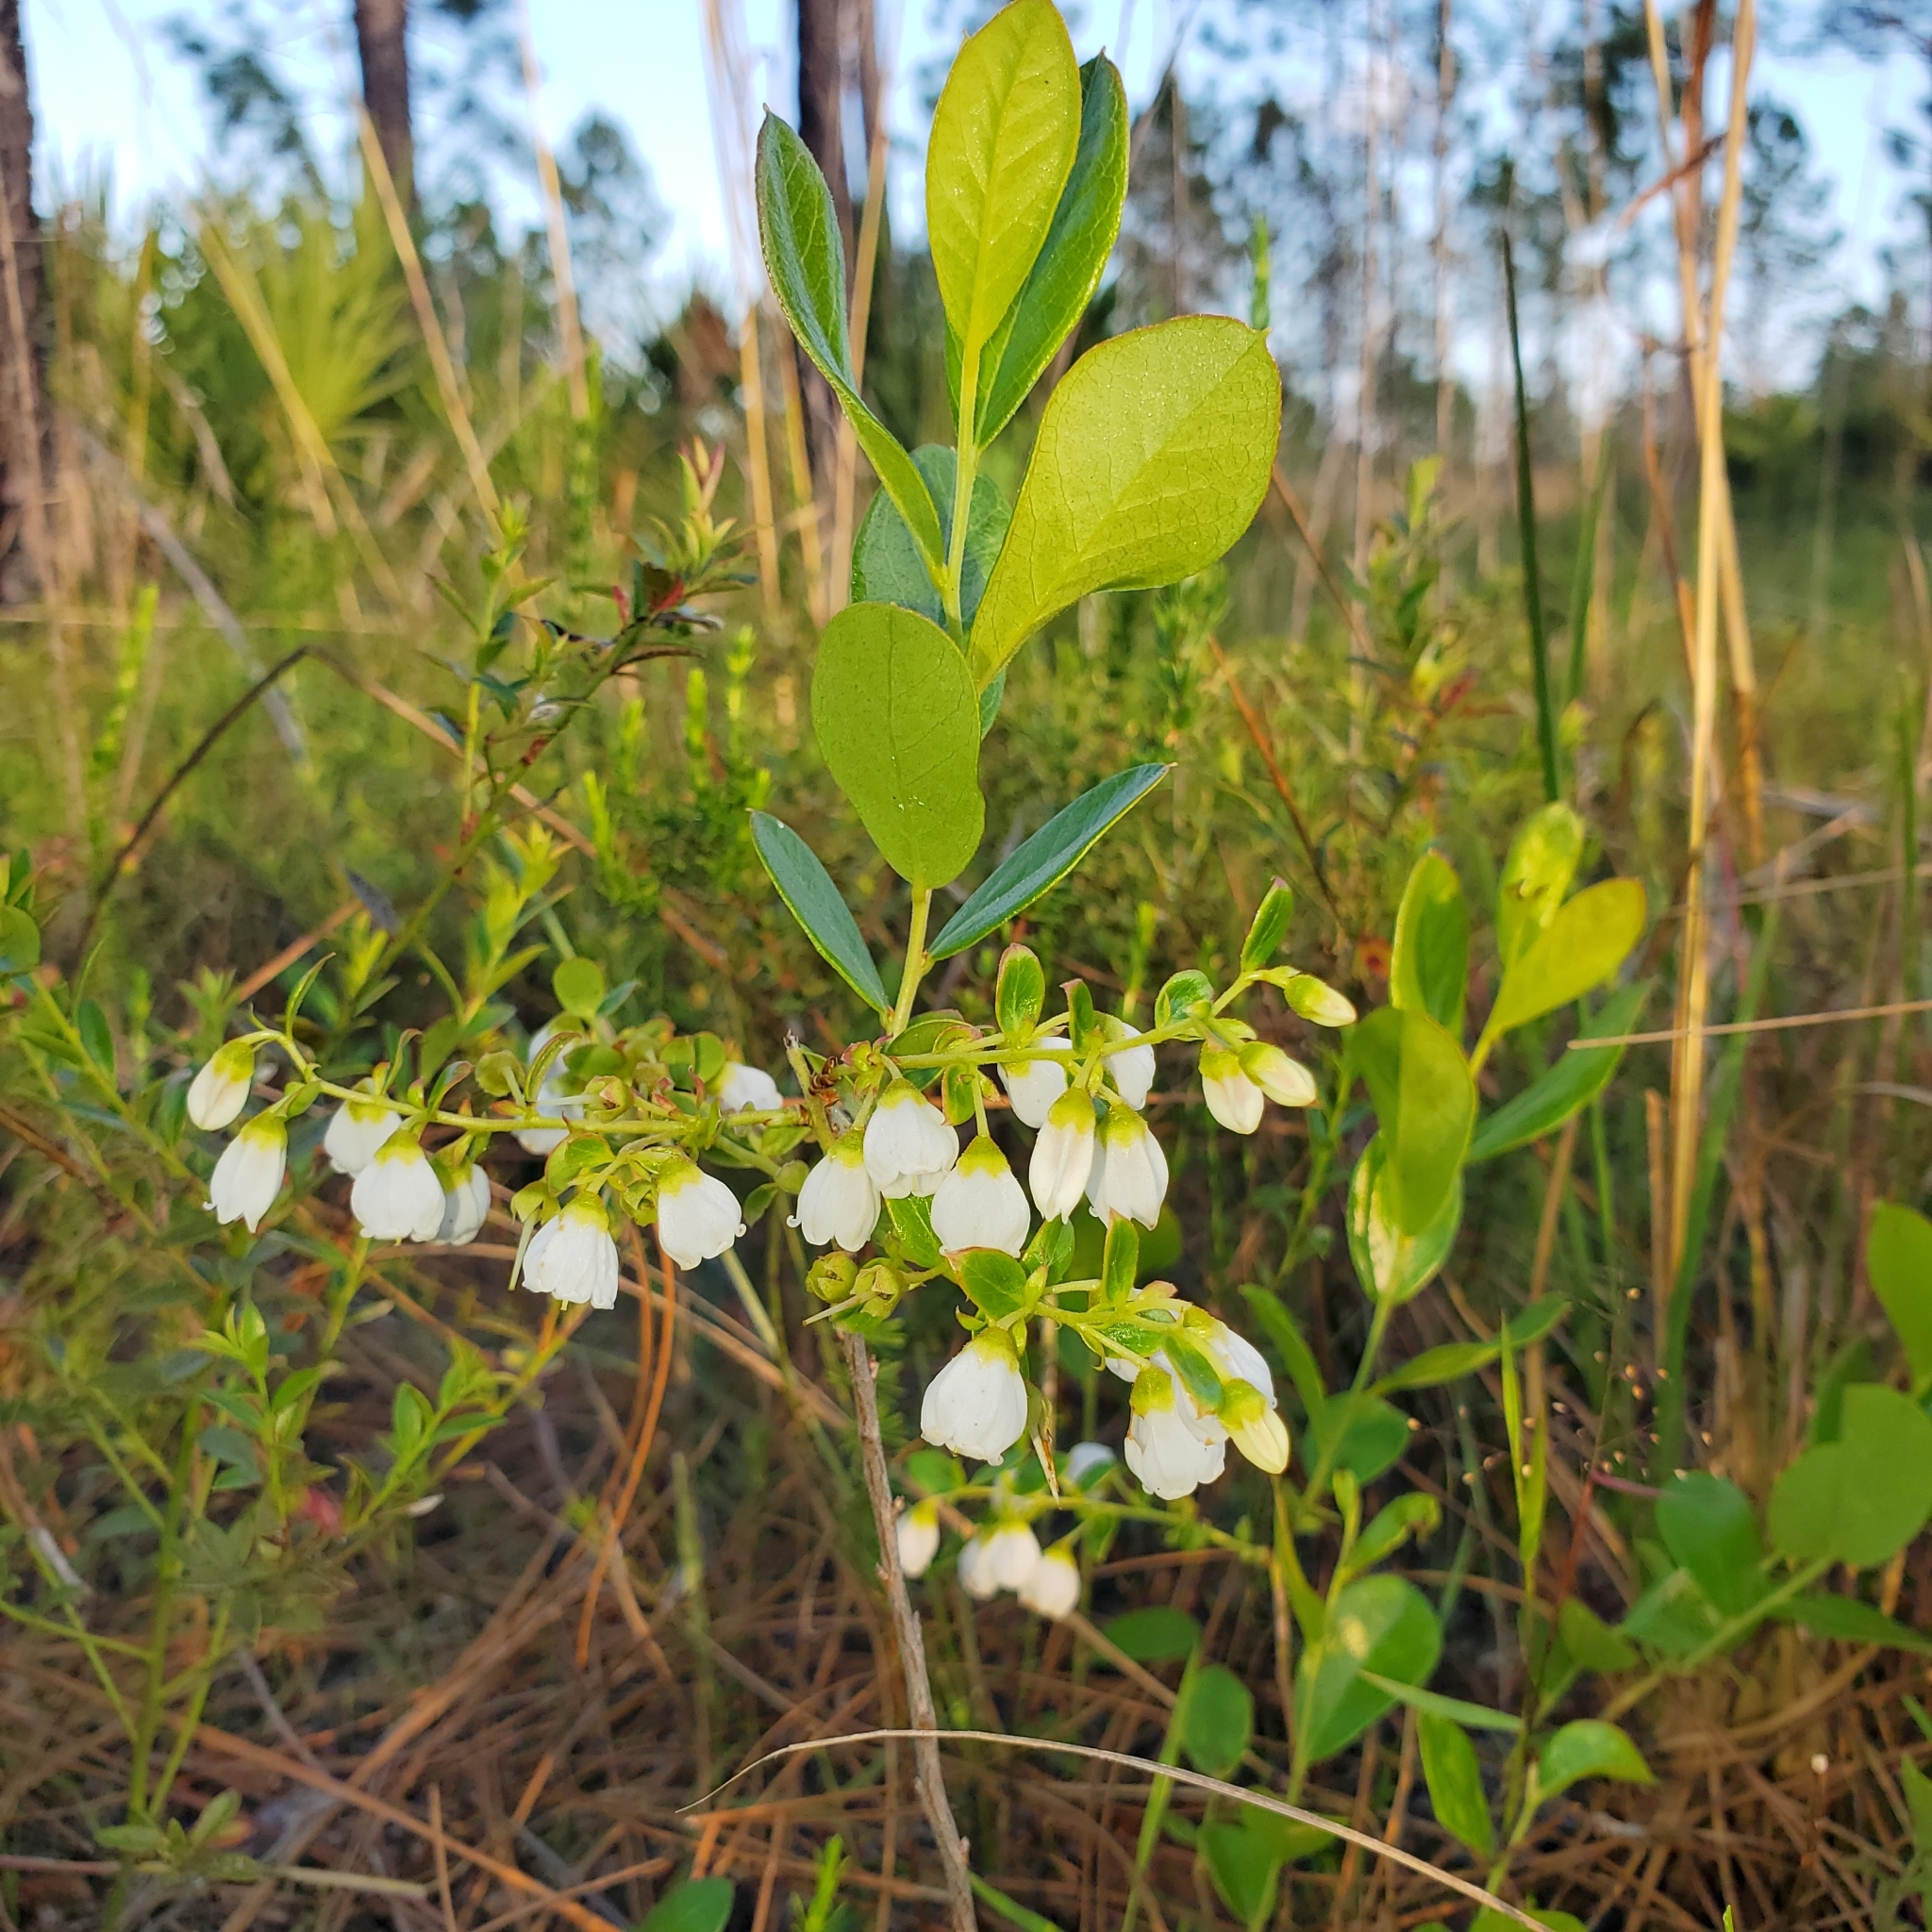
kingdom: Plantae
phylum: Tracheophyta
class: Magnoliopsida
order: Ericales
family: Ericaceae
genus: Gaylussacia
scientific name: Gaylussacia dumosa
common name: Dwarf huckleberry
